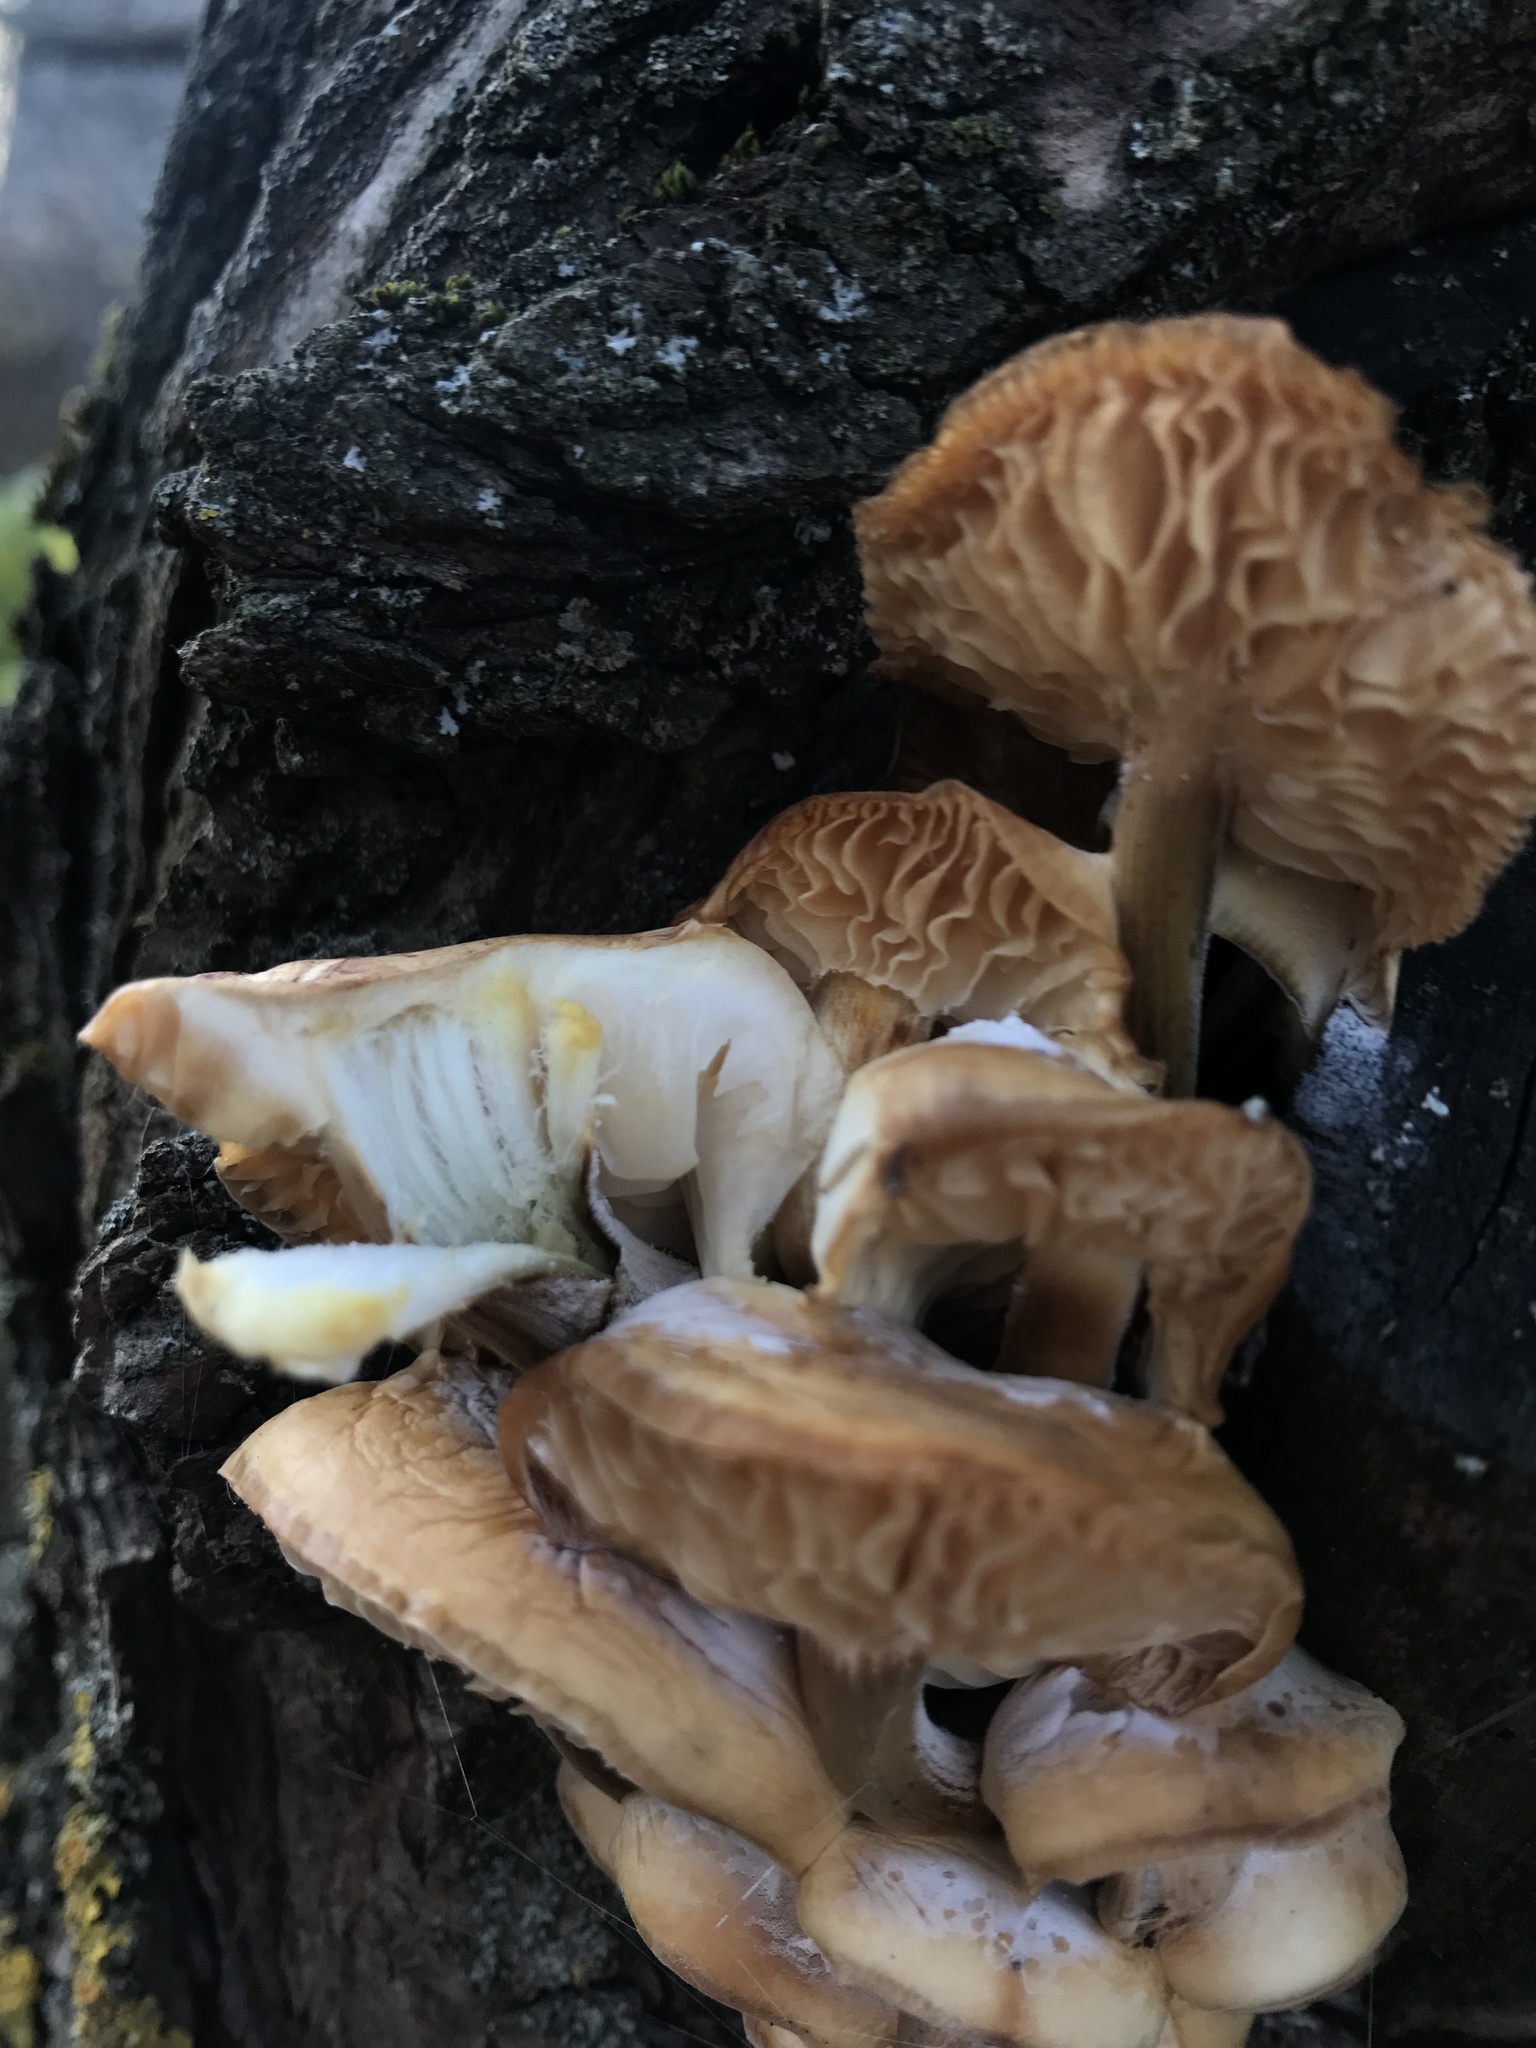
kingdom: Fungi
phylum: Basidiomycota
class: Agaricomycetes
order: Agaricales
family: Physalacriaceae
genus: Flammulina
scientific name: Flammulina
